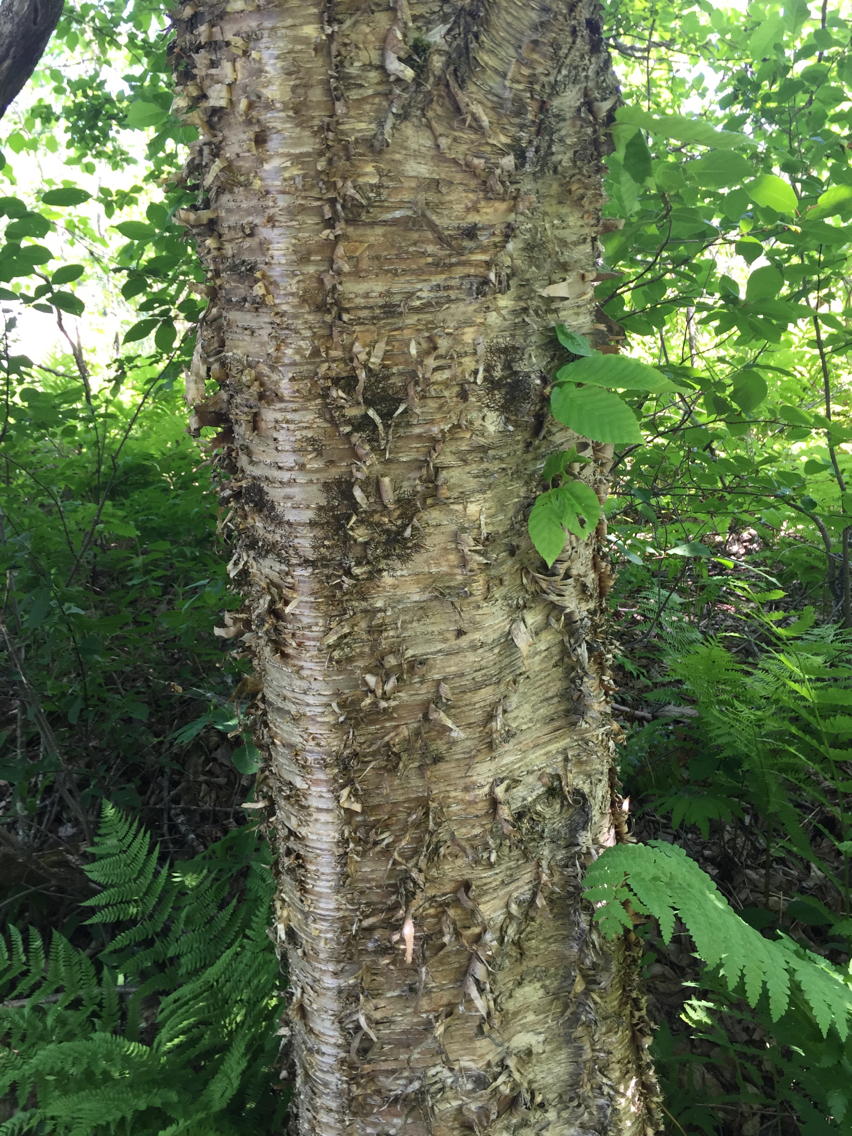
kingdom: Plantae
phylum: Tracheophyta
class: Magnoliopsida
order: Fagales
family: Betulaceae
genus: Betula
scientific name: Betula alleghaniensis
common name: Yellow birch
